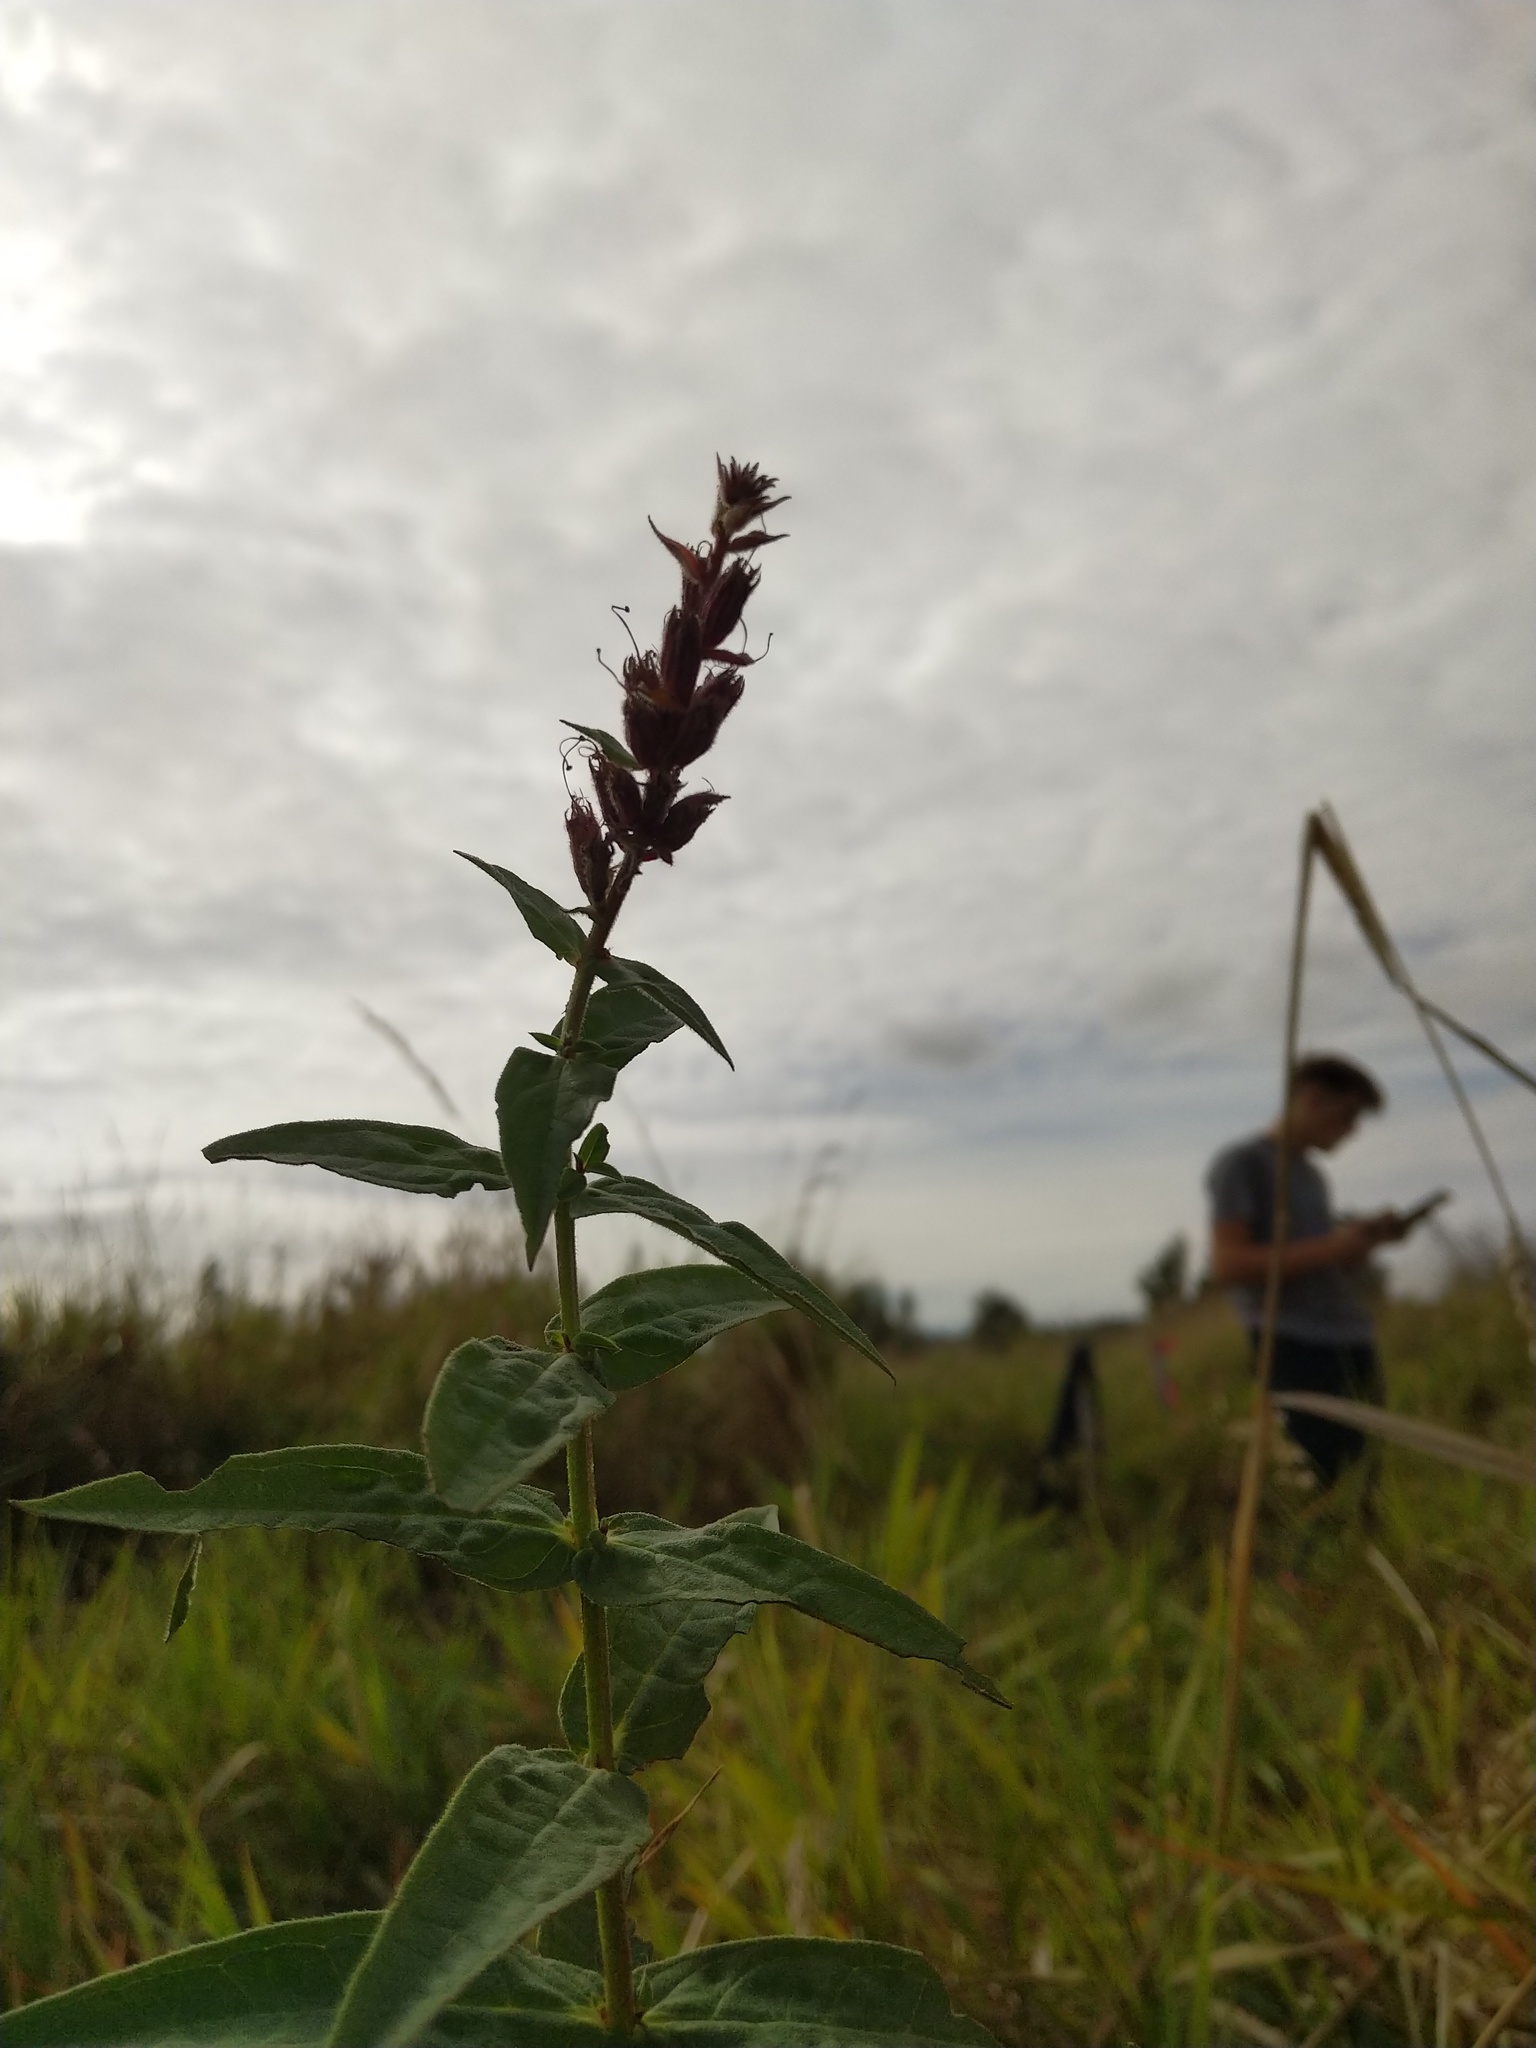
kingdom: Plantae
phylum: Tracheophyta
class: Magnoliopsida
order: Myrtales
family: Lythraceae
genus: Lythrum
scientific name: Lythrum salicaria
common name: Purple loosestrife
